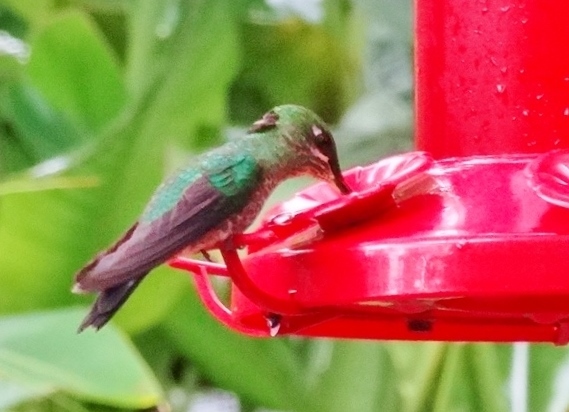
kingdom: Animalia
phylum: Chordata
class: Aves
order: Apodiformes
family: Trochilidae
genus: Heliodoxa
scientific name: Heliodoxa jacula
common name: Green-crowned brilliant
